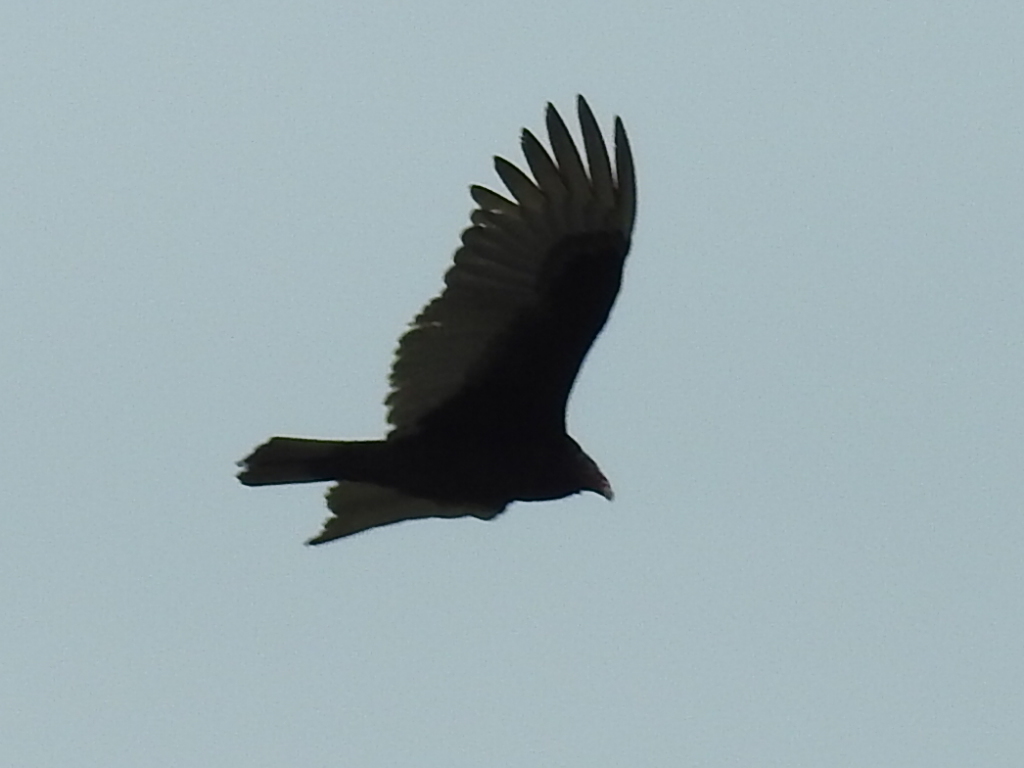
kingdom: Animalia
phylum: Chordata
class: Aves
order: Accipitriformes
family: Cathartidae
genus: Cathartes
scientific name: Cathartes aura
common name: Turkey vulture
